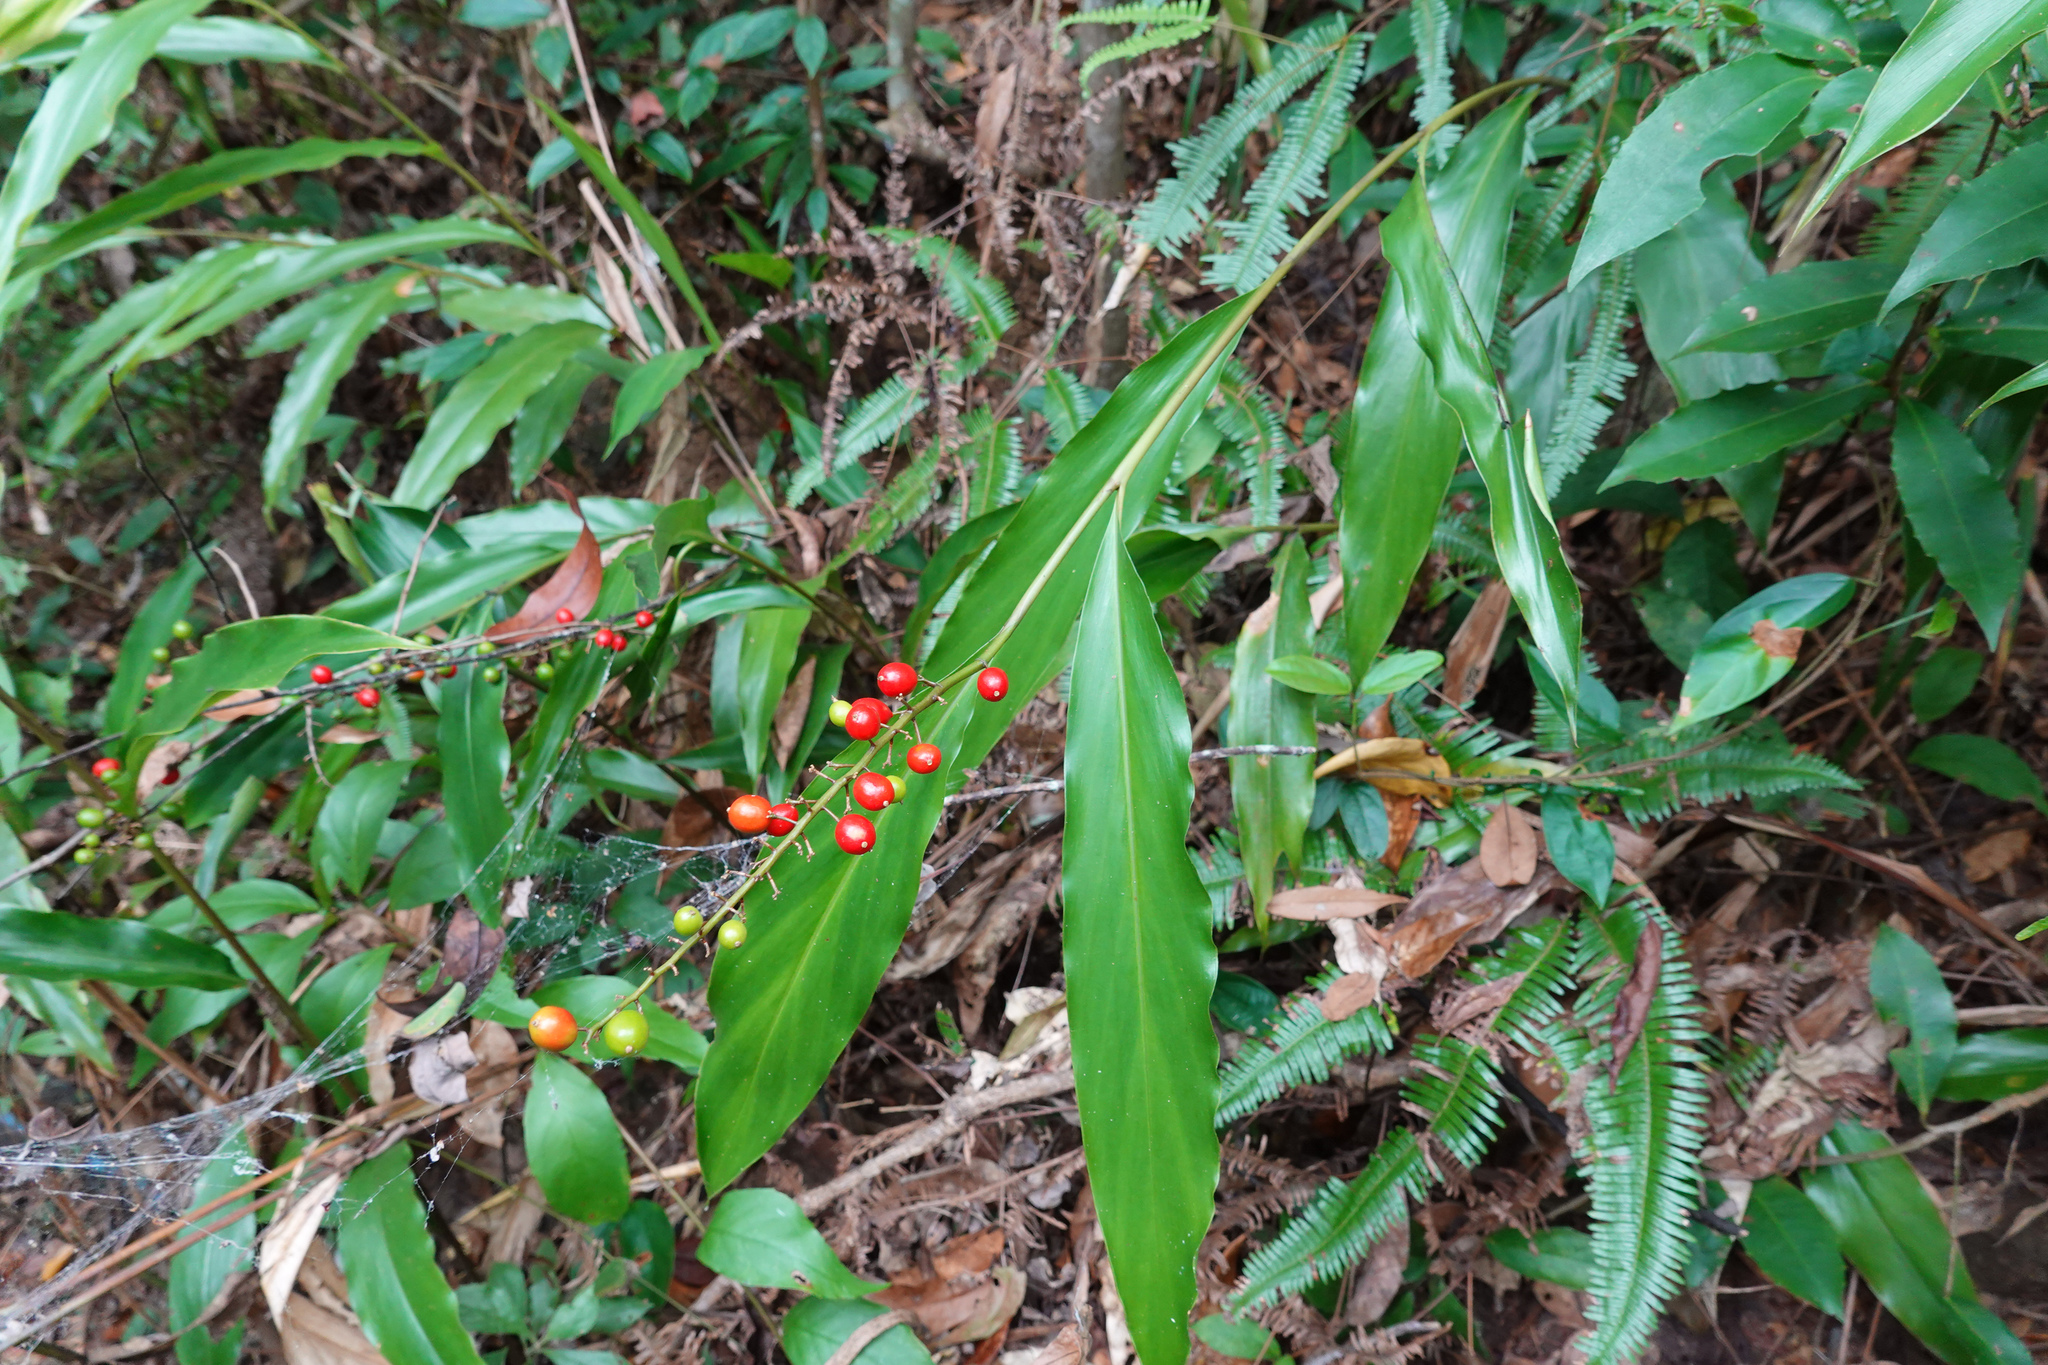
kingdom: Plantae
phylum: Tracheophyta
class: Liliopsida
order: Zingiberales
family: Zingiberaceae
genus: Alpinia
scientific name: Alpinia intermedia
